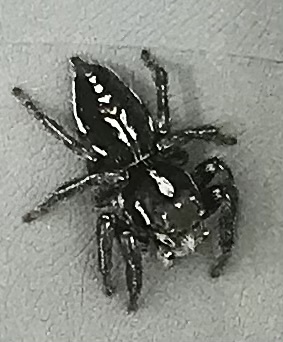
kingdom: Animalia
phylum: Arthropoda
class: Arachnida
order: Araneae
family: Salticidae
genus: Hyllus
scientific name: Hyllus argyrotoxus
